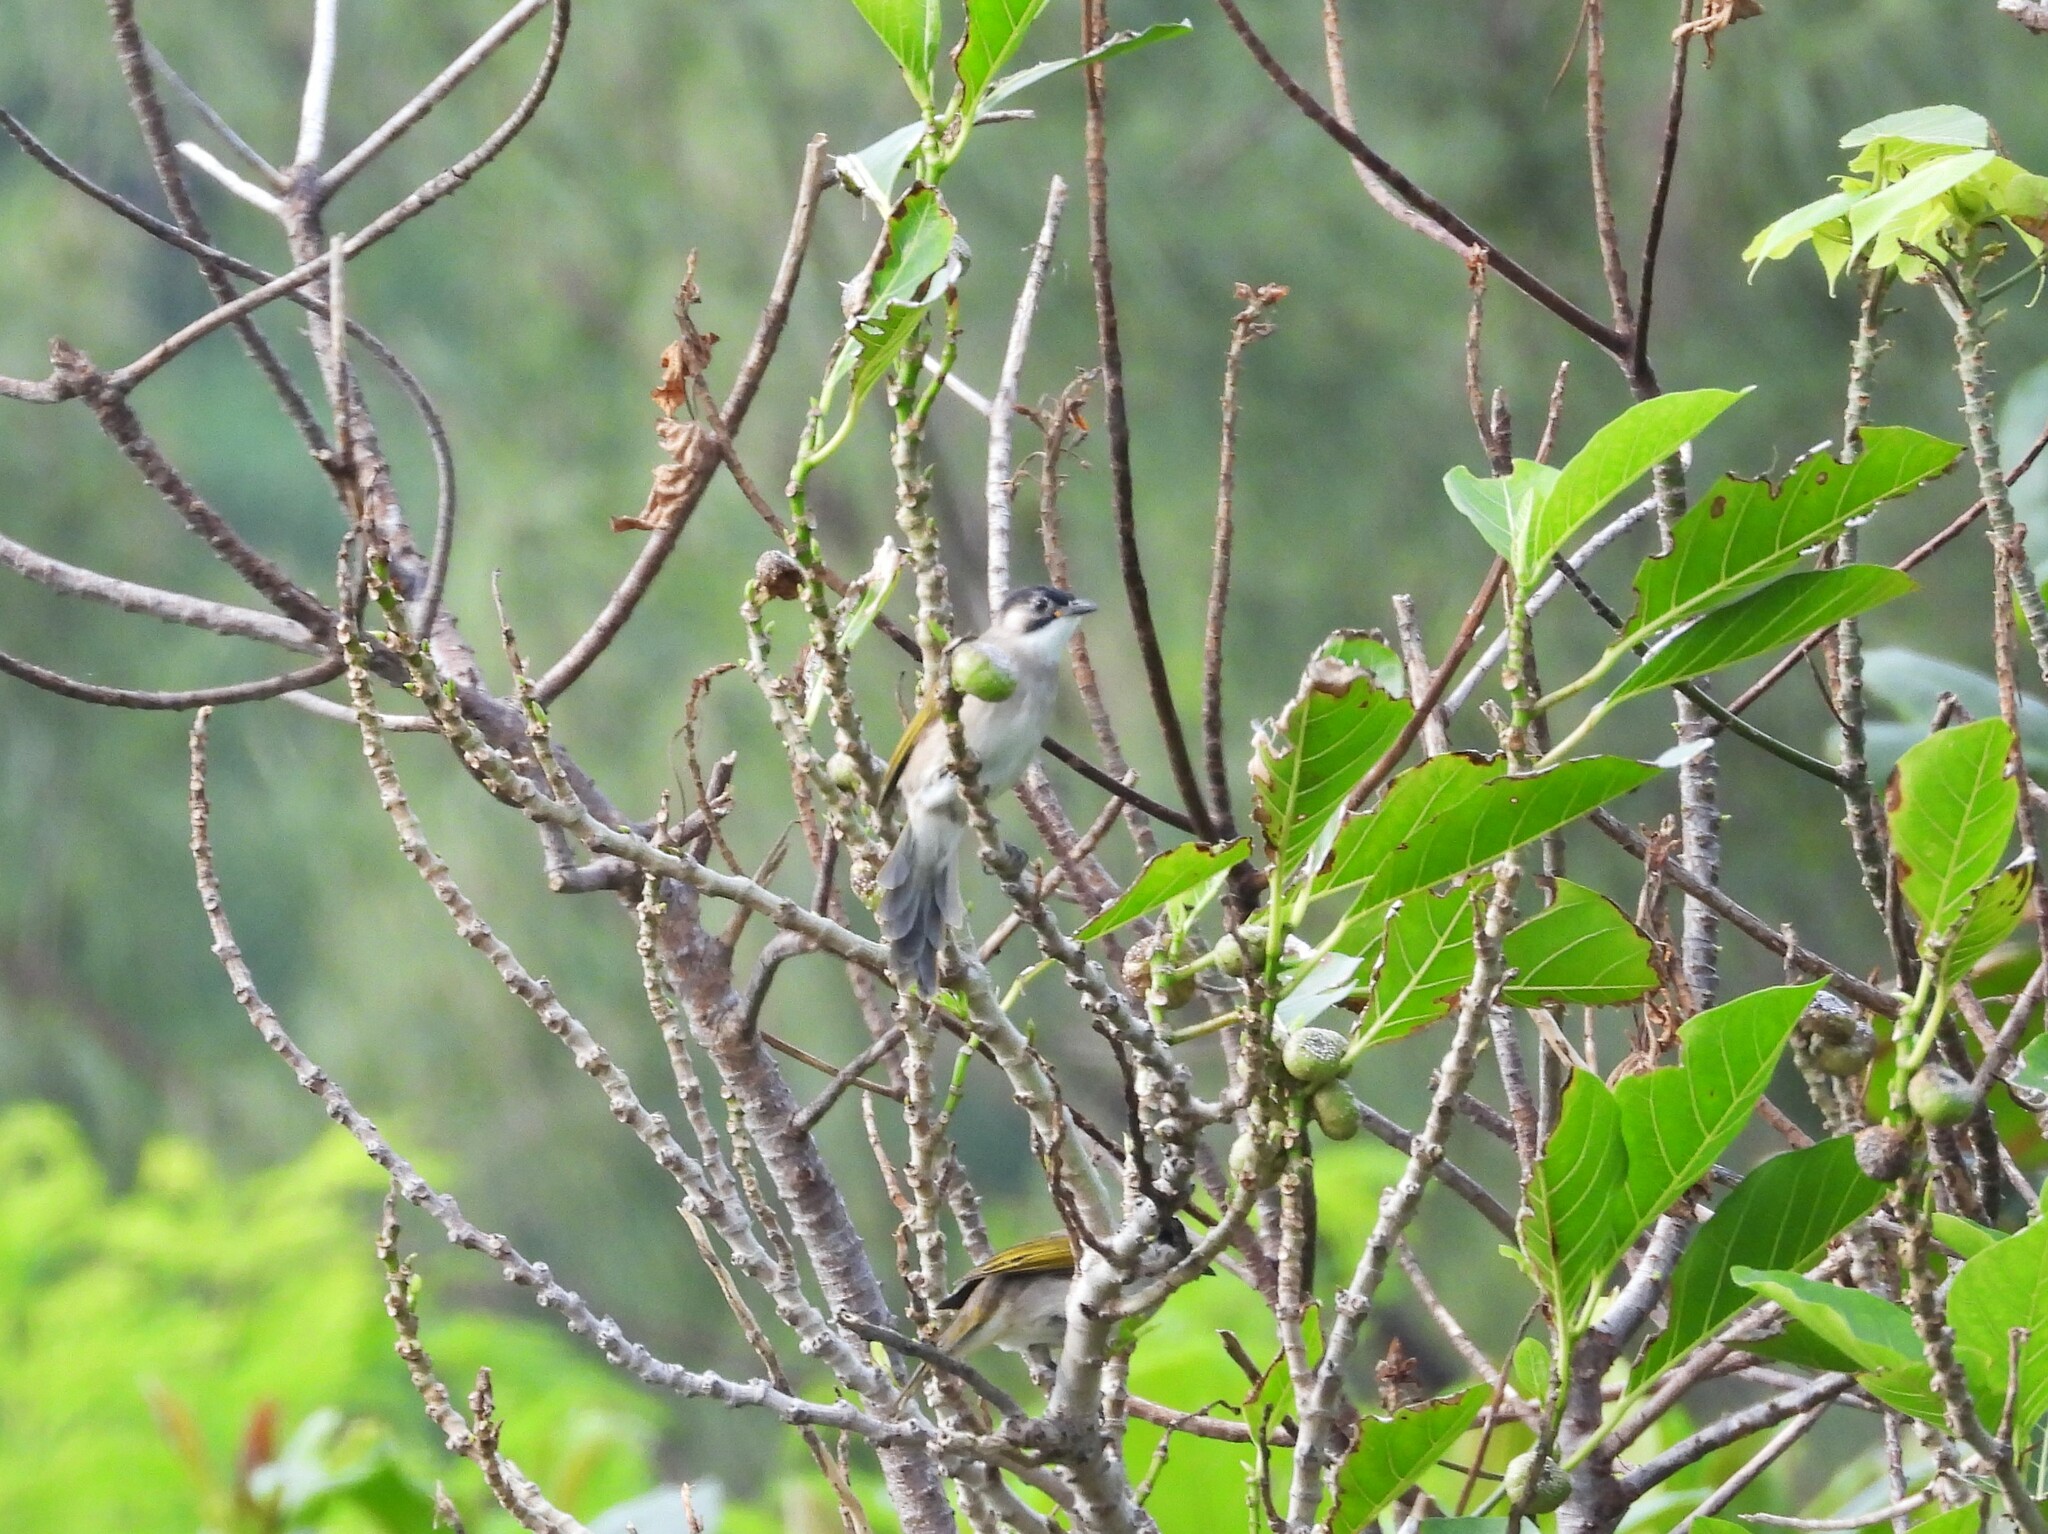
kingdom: Animalia
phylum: Chordata
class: Aves
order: Passeriformes
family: Pycnonotidae
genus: Pycnonotus
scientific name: Pycnonotus taivanus
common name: Styan's bulbul
